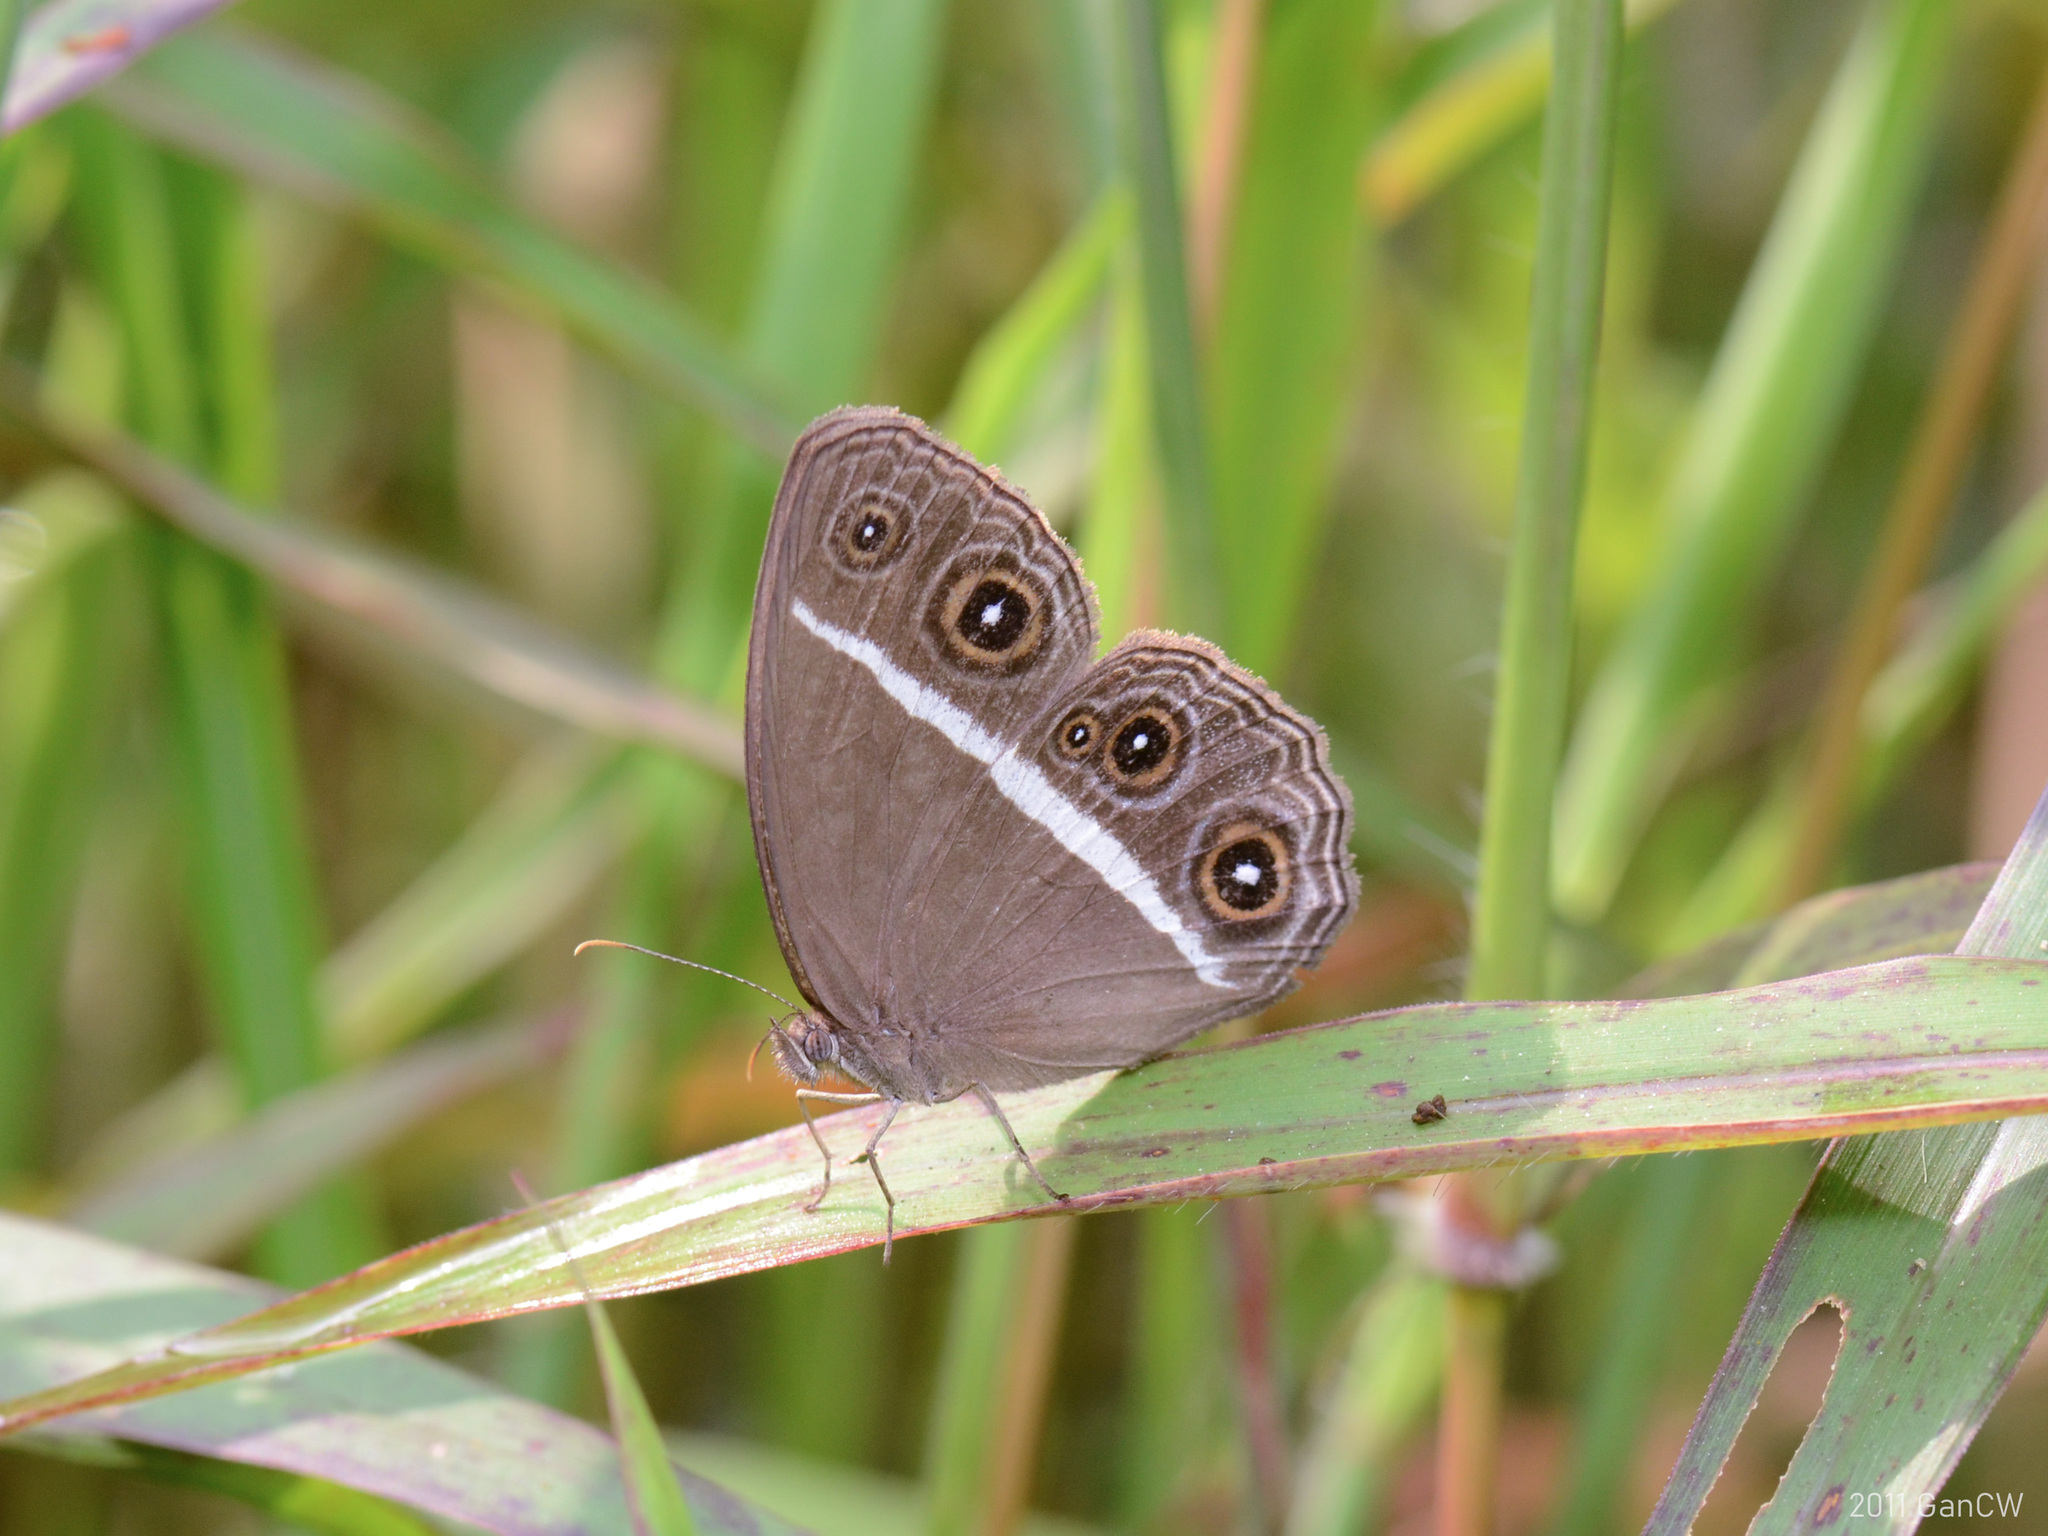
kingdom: Animalia
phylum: Arthropoda
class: Insecta
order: Lepidoptera
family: Nymphalidae
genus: Orsotriaena
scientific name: Orsotriaena medus
